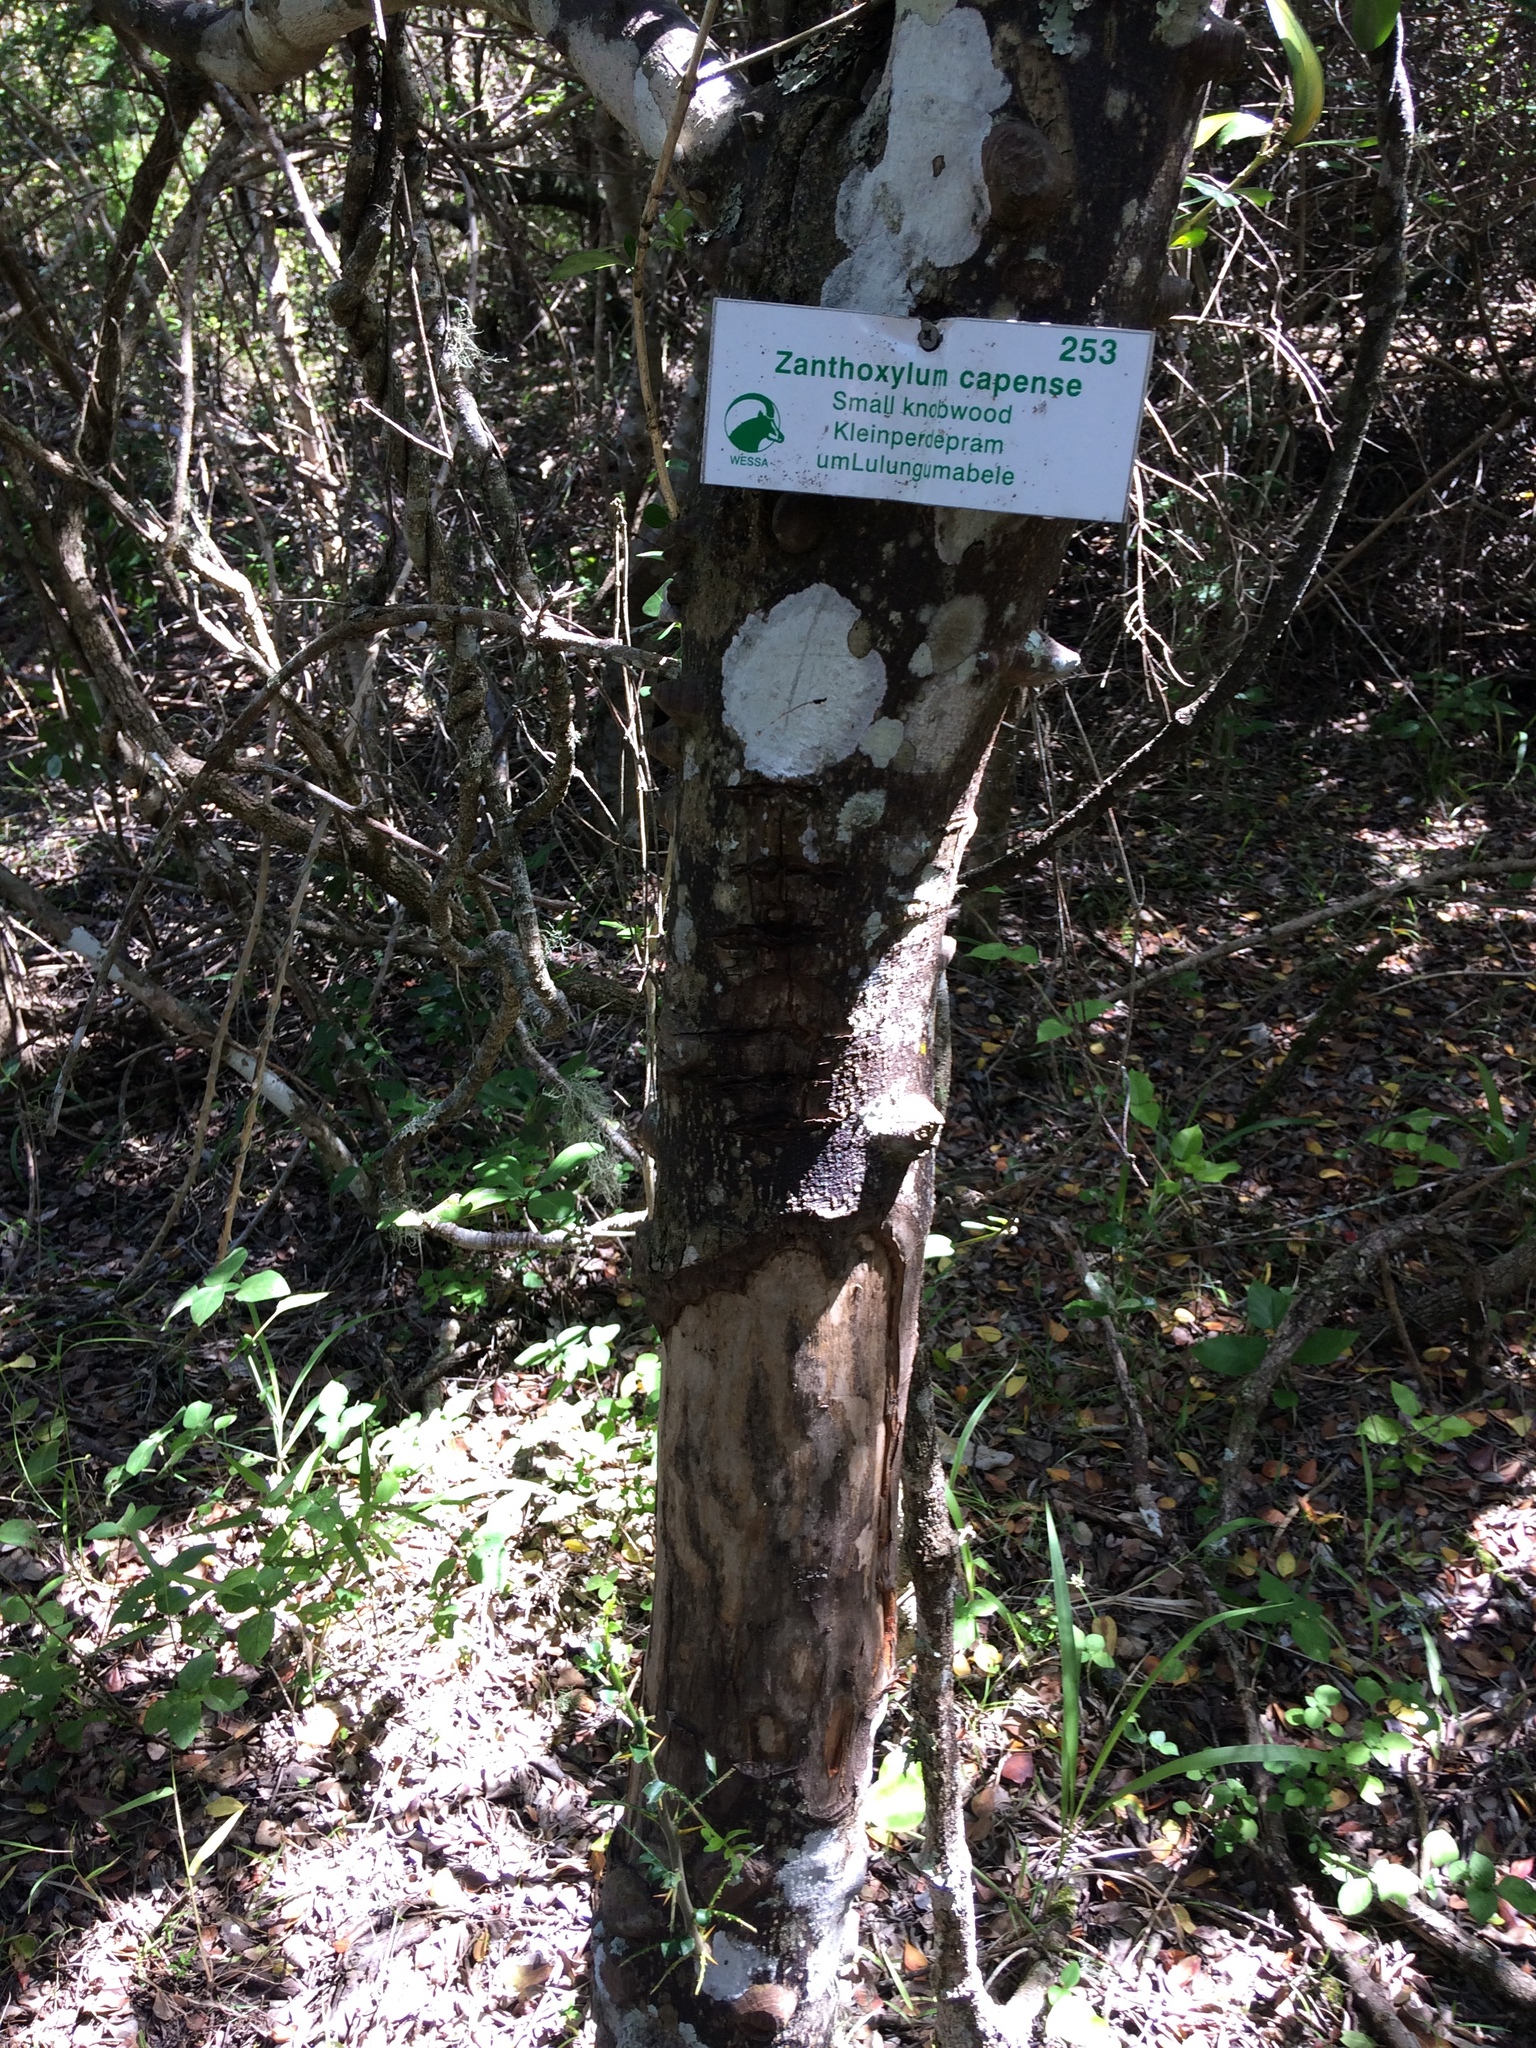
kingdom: Plantae
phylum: Tracheophyta
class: Magnoliopsida
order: Sapindales
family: Rutaceae
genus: Zanthoxylum
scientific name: Zanthoxylum capense
